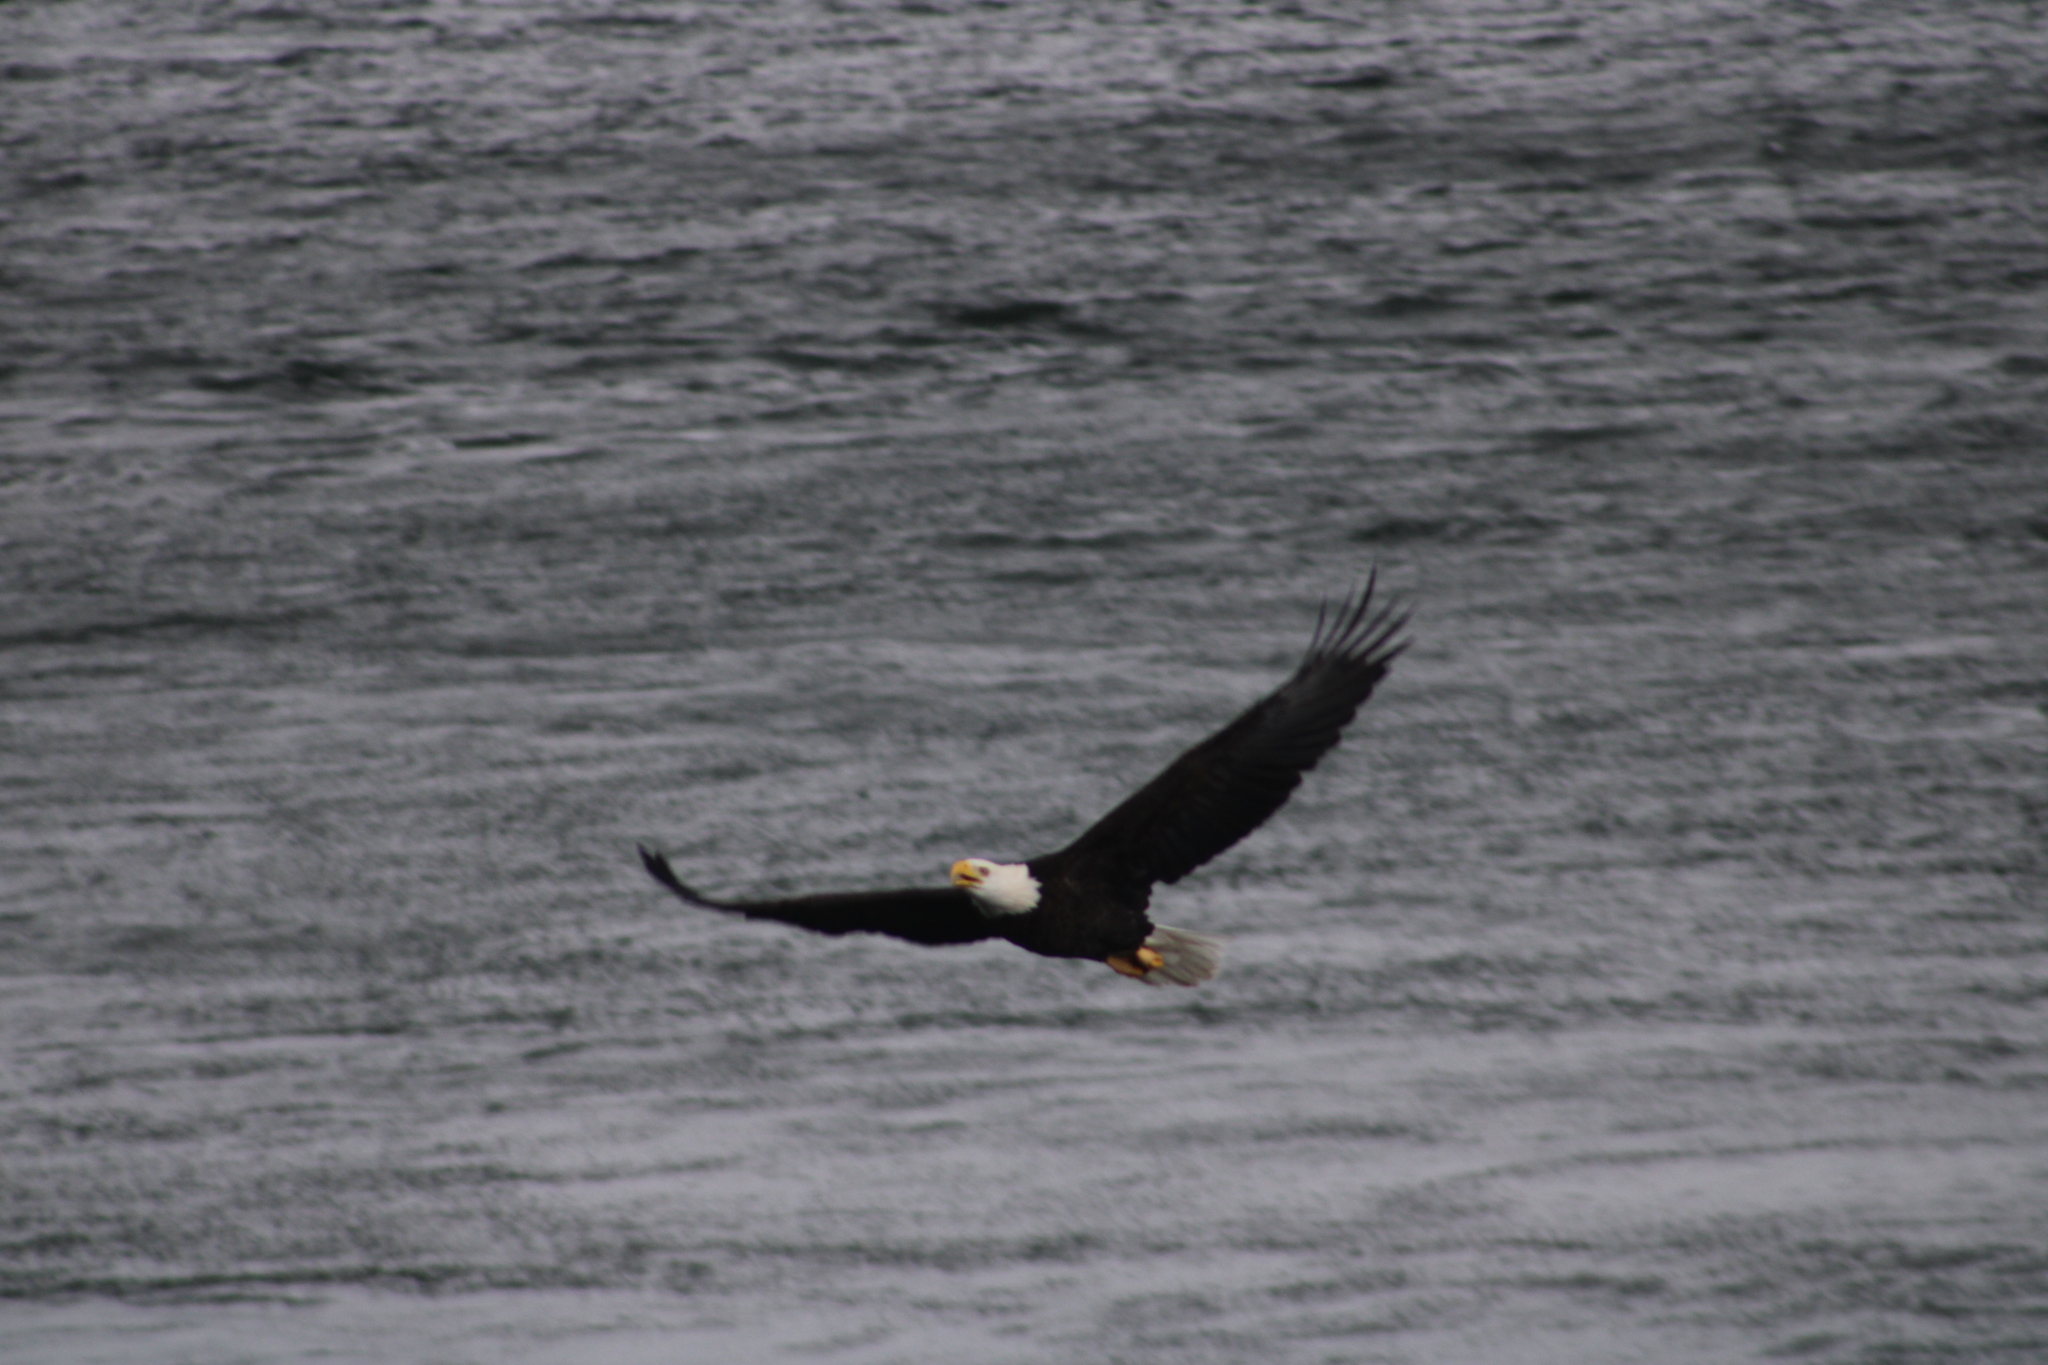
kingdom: Animalia
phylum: Chordata
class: Aves
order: Accipitriformes
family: Accipitridae
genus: Haliaeetus
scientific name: Haliaeetus leucocephalus
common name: Bald eagle
